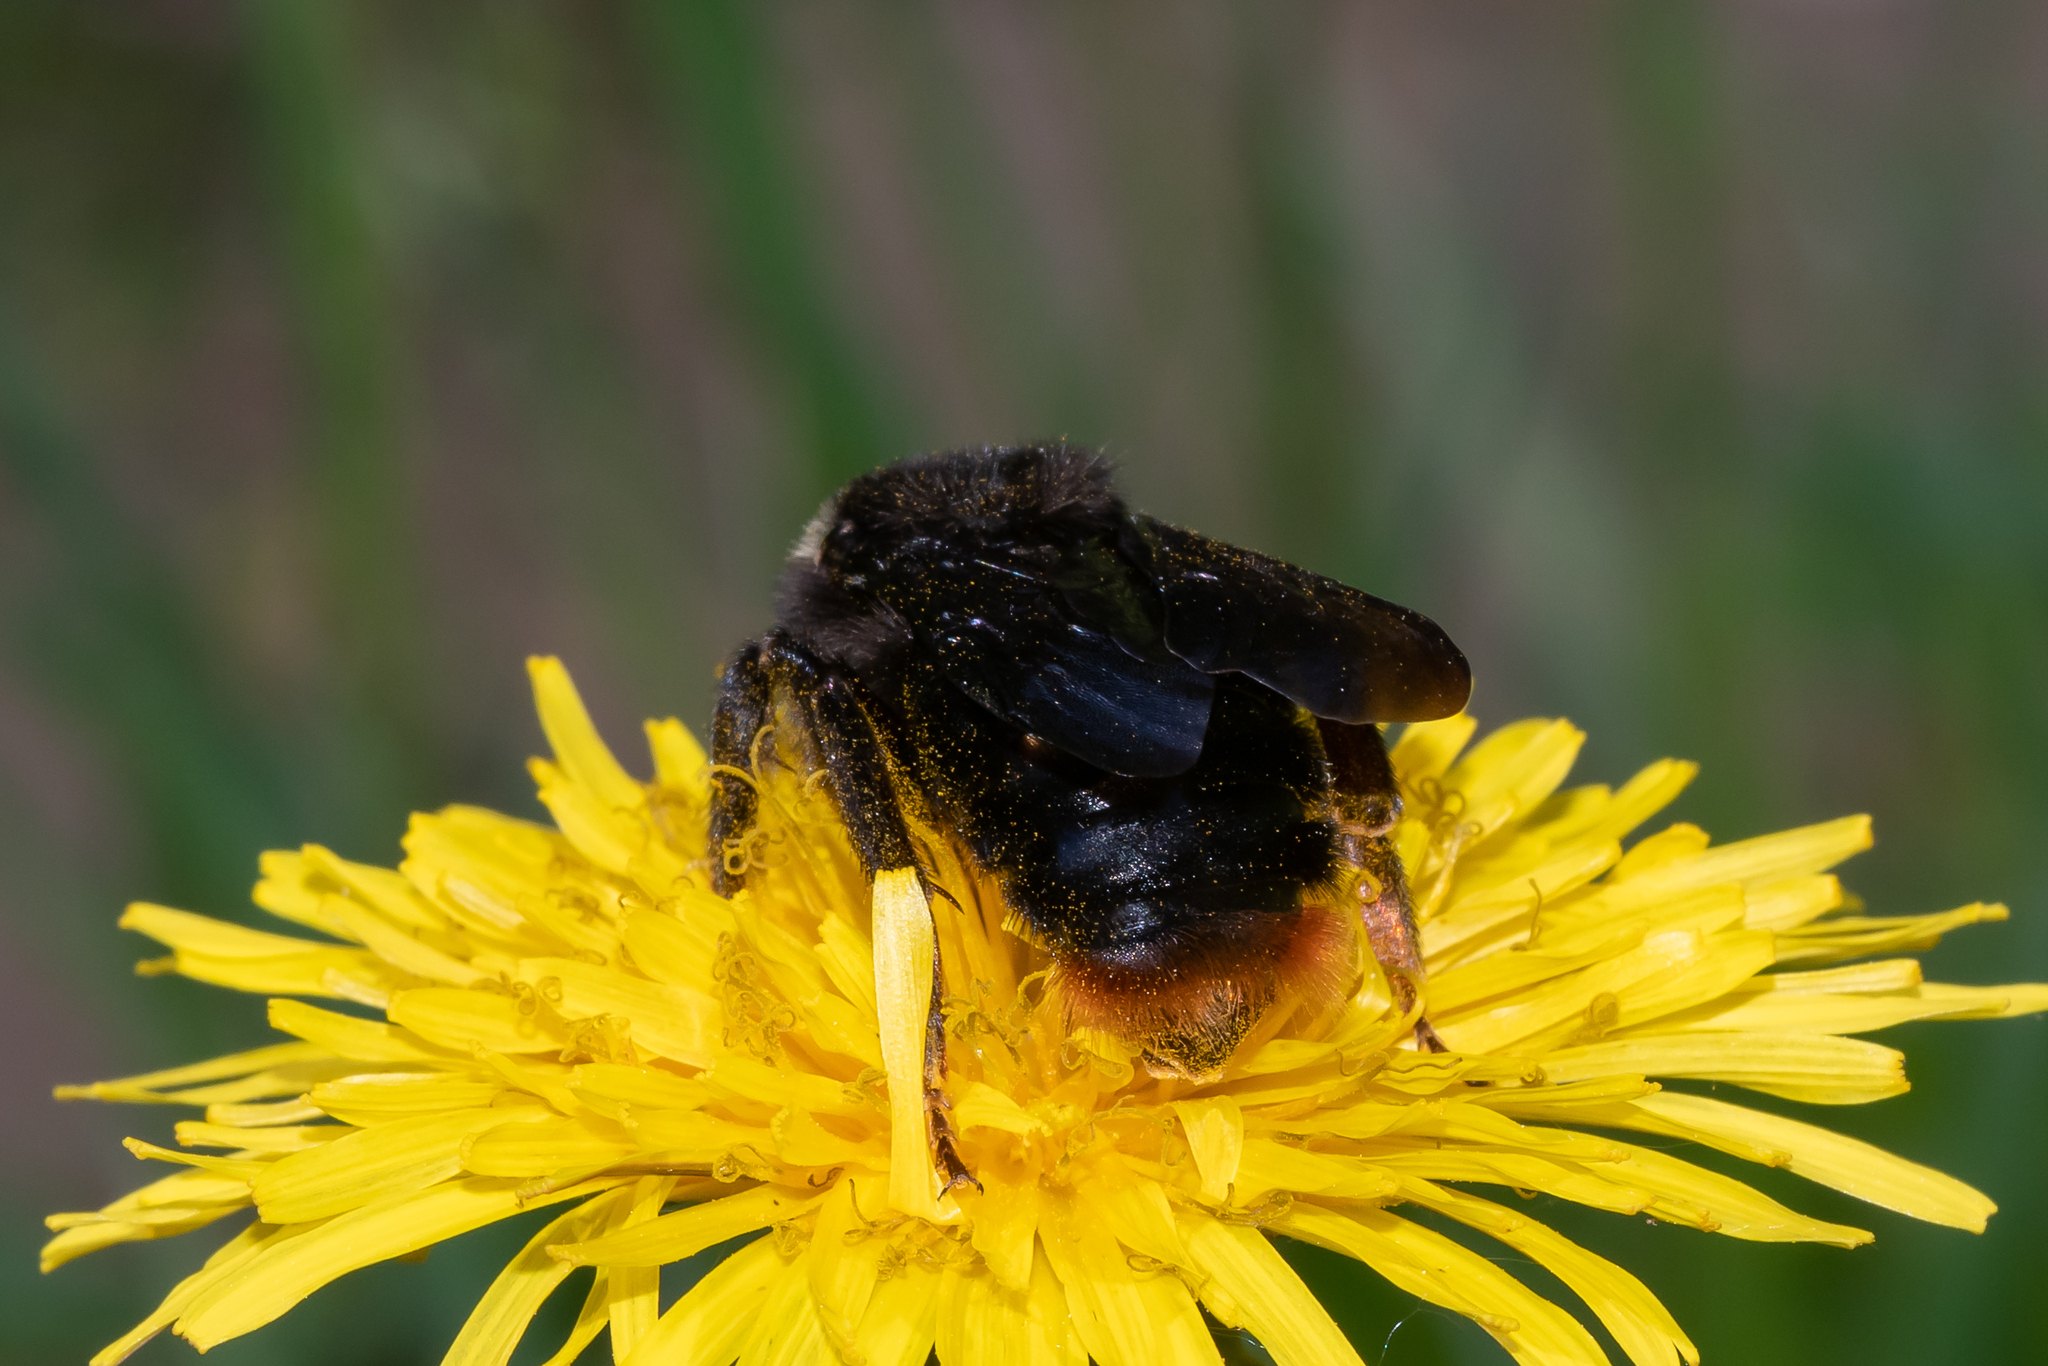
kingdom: Animalia
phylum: Arthropoda
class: Insecta
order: Hymenoptera
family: Apidae
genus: Bombus
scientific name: Bombus rupestris
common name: Hill cuckoo-bee
